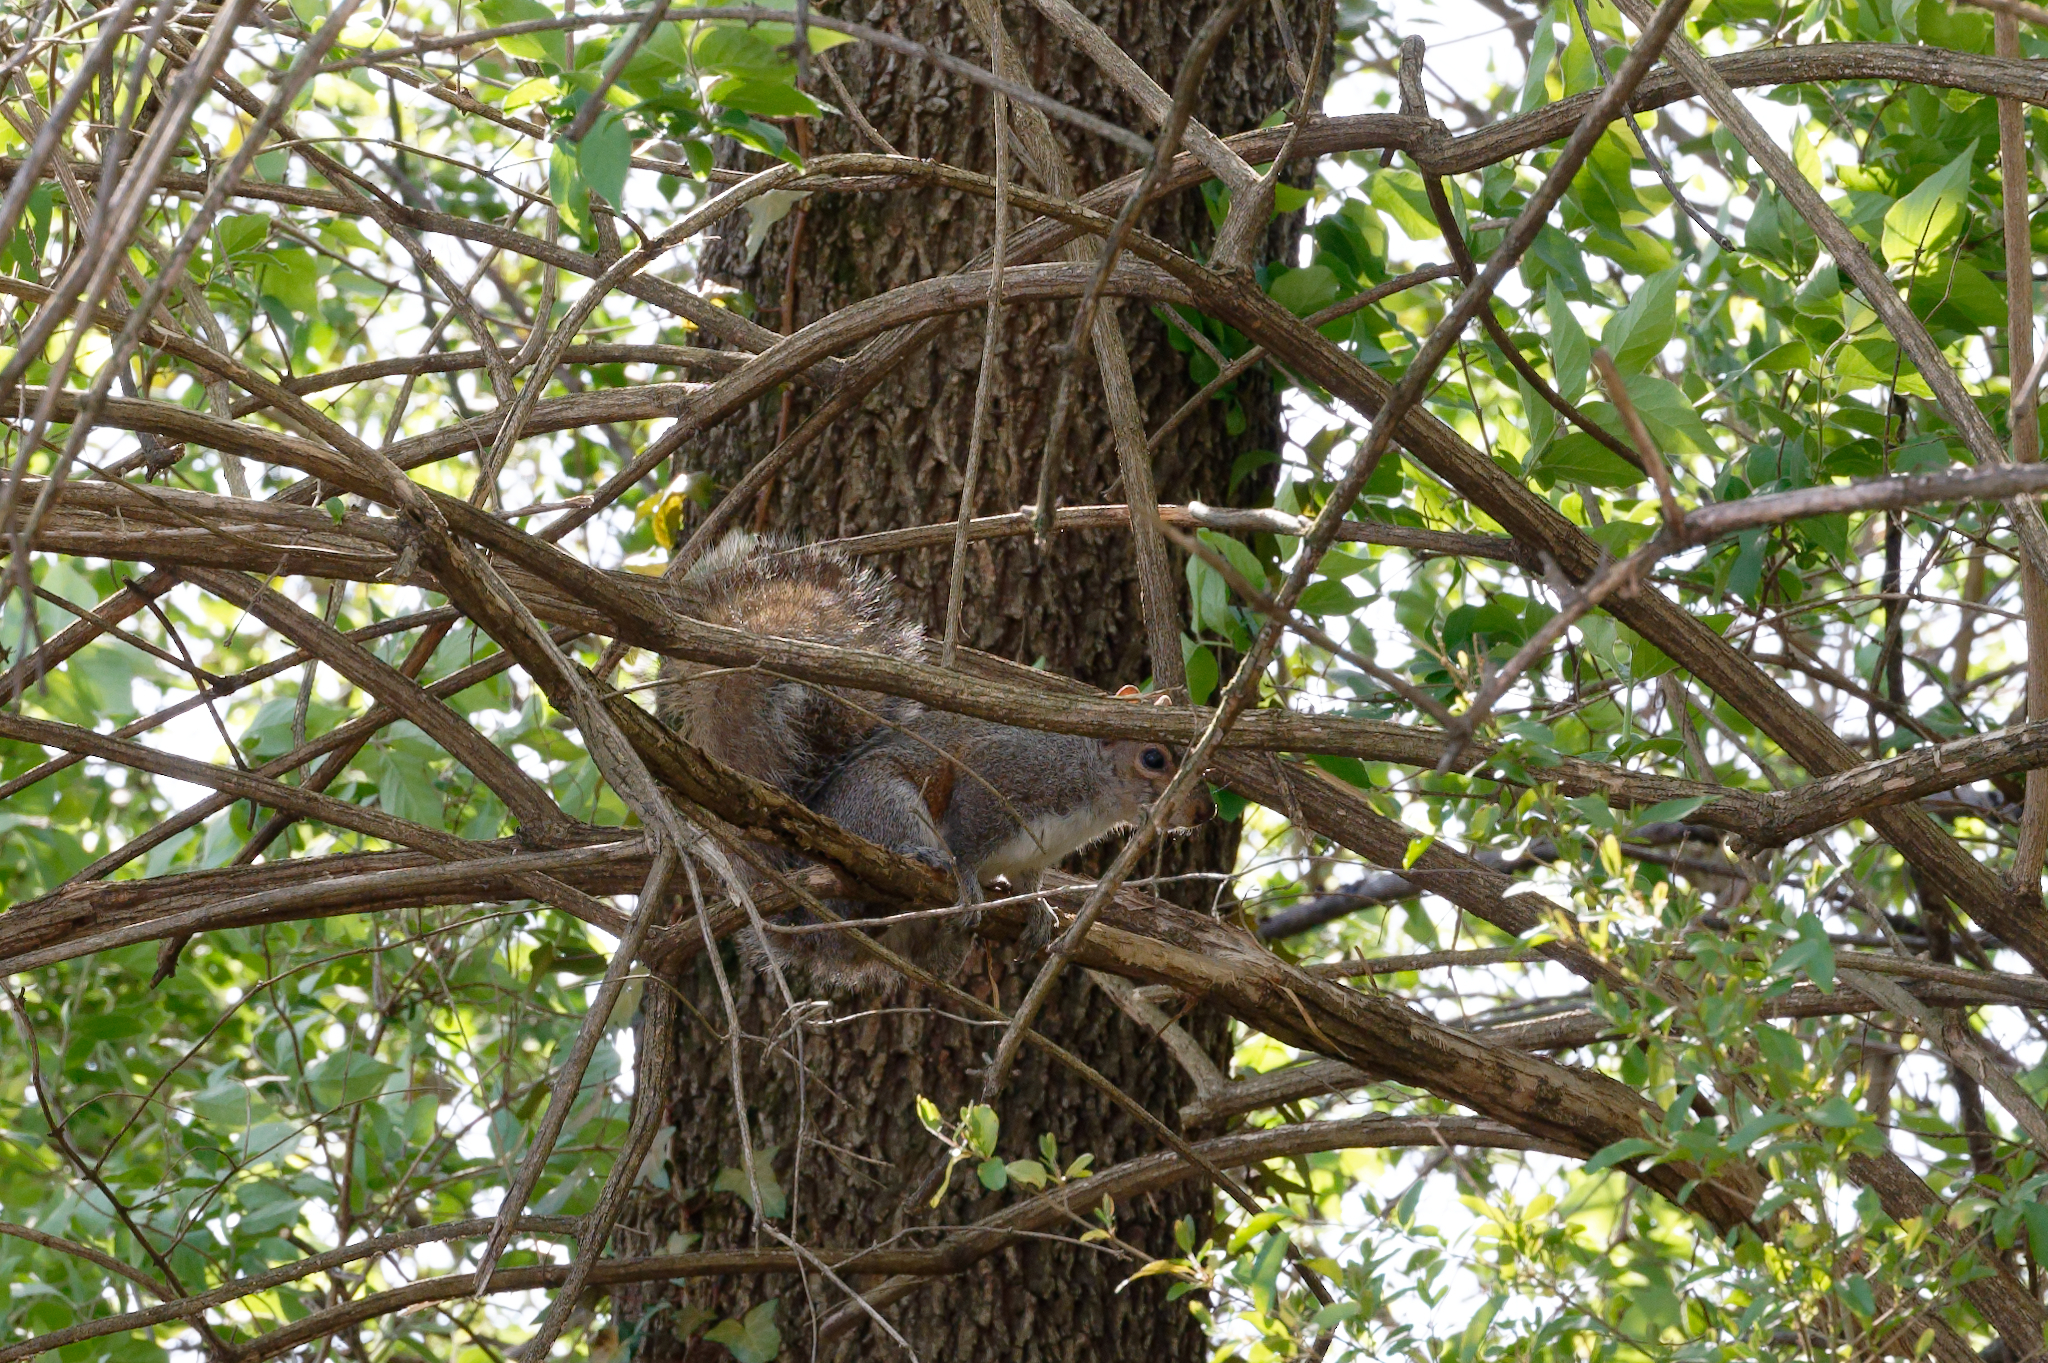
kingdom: Animalia
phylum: Chordata
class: Mammalia
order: Rodentia
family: Sciuridae
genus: Sciurus
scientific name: Sciurus carolinensis
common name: Eastern gray squirrel
